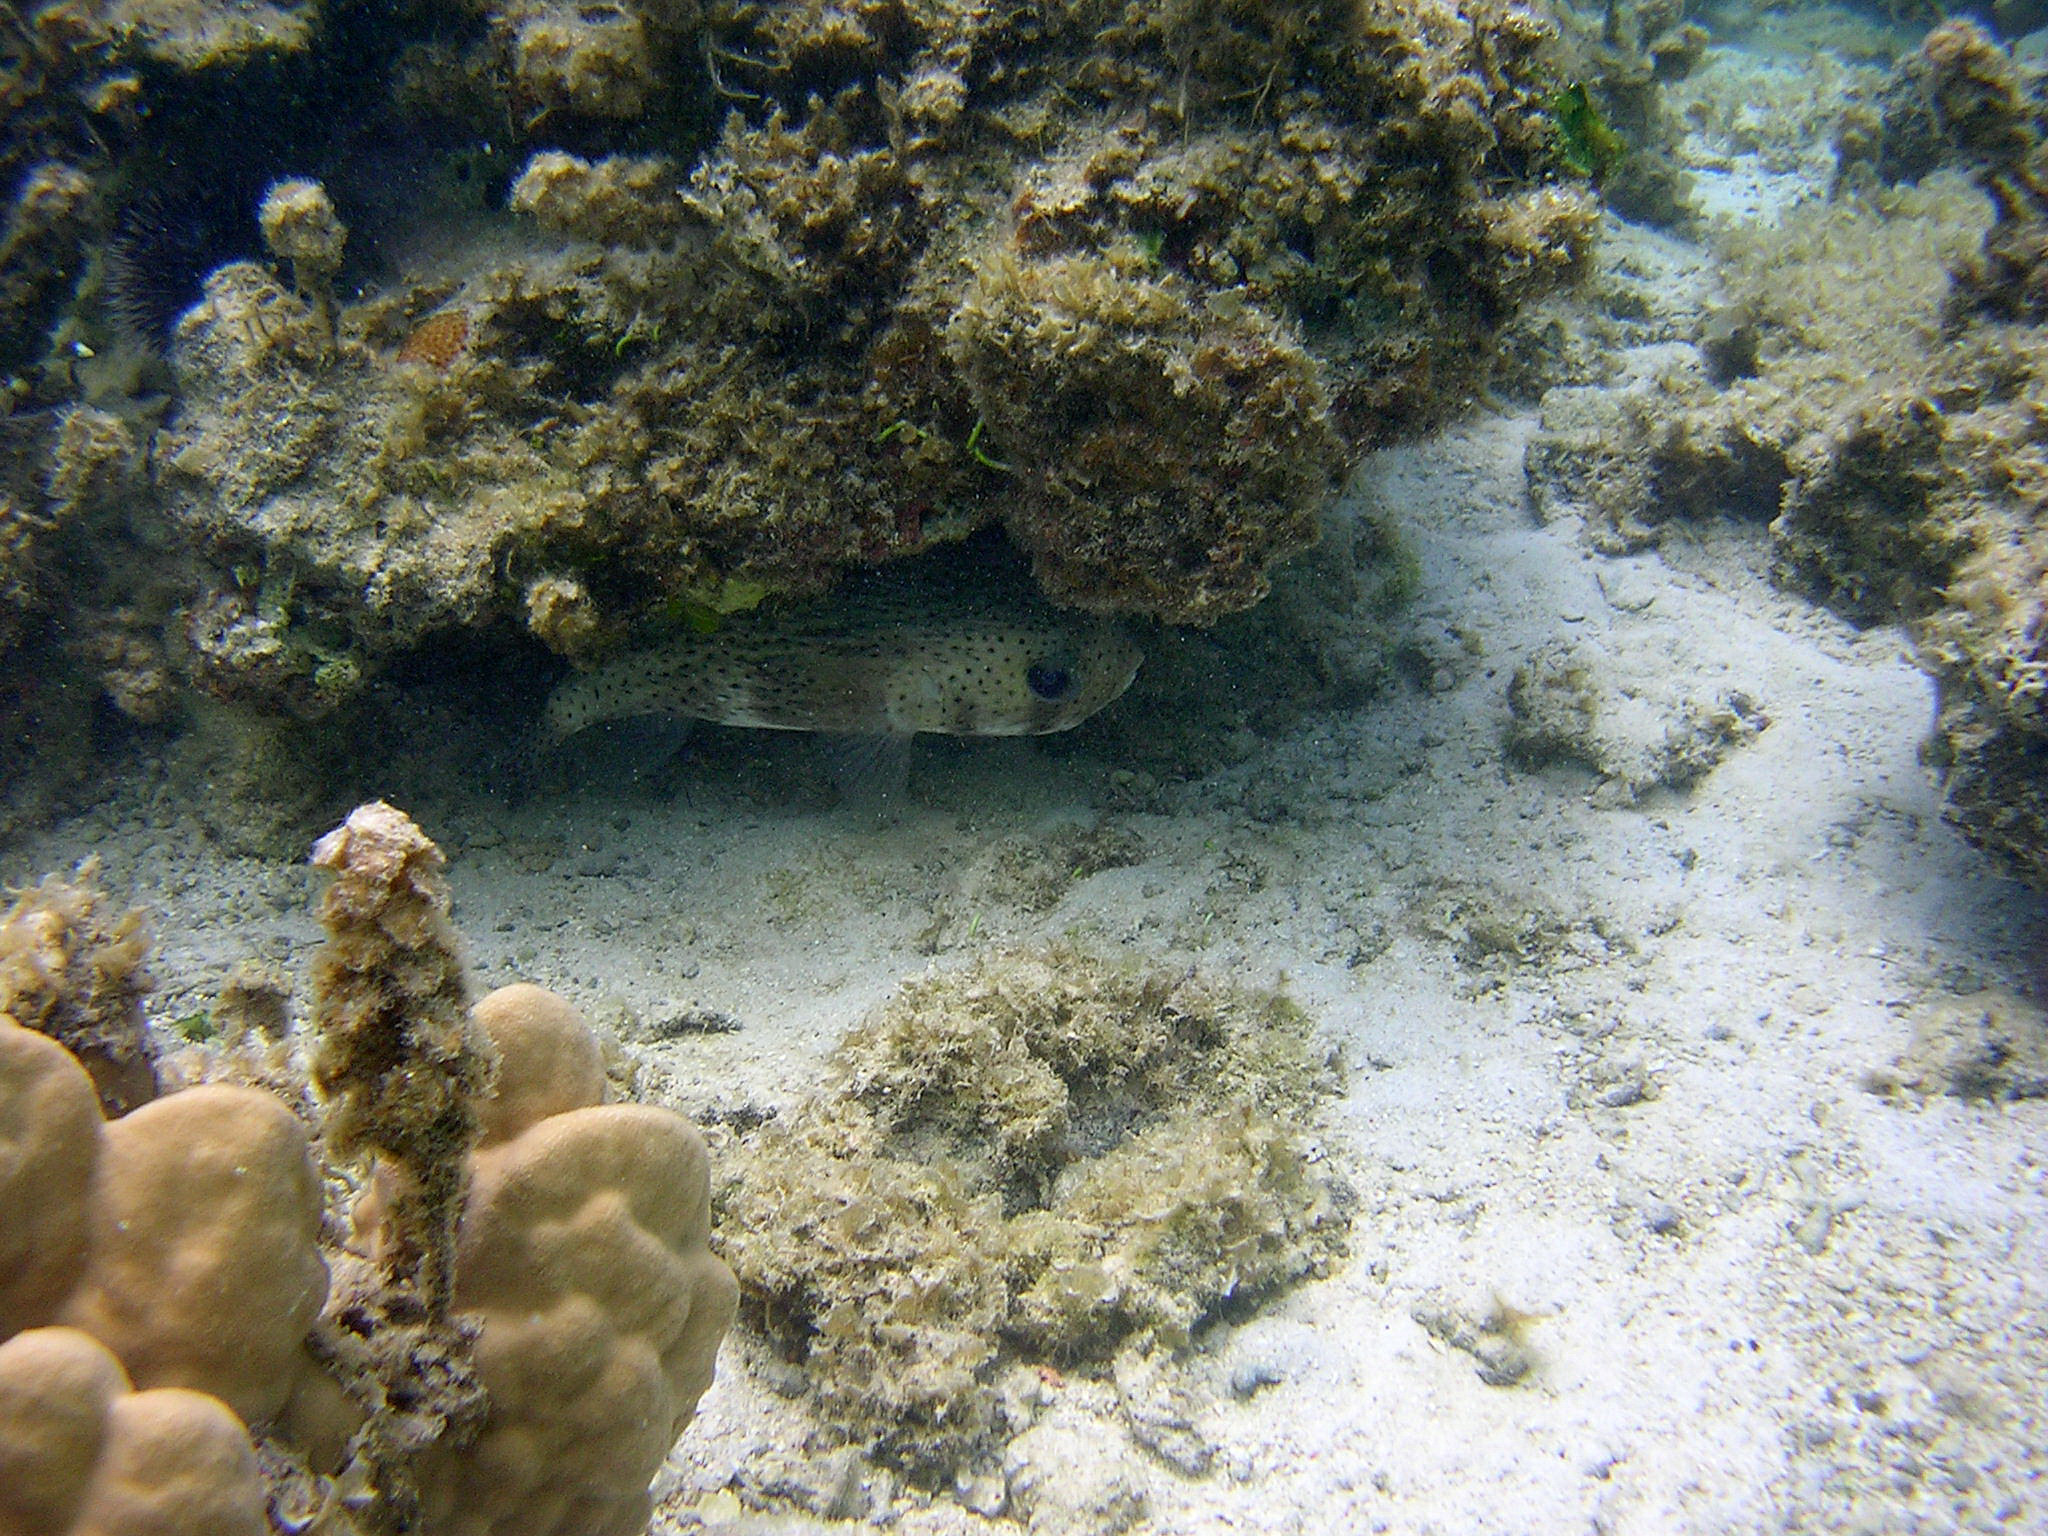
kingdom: Animalia
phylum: Chordata
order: Tetraodontiformes
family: Diodontidae
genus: Diodon
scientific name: Diodon hystrix
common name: Giant porcupinefish
